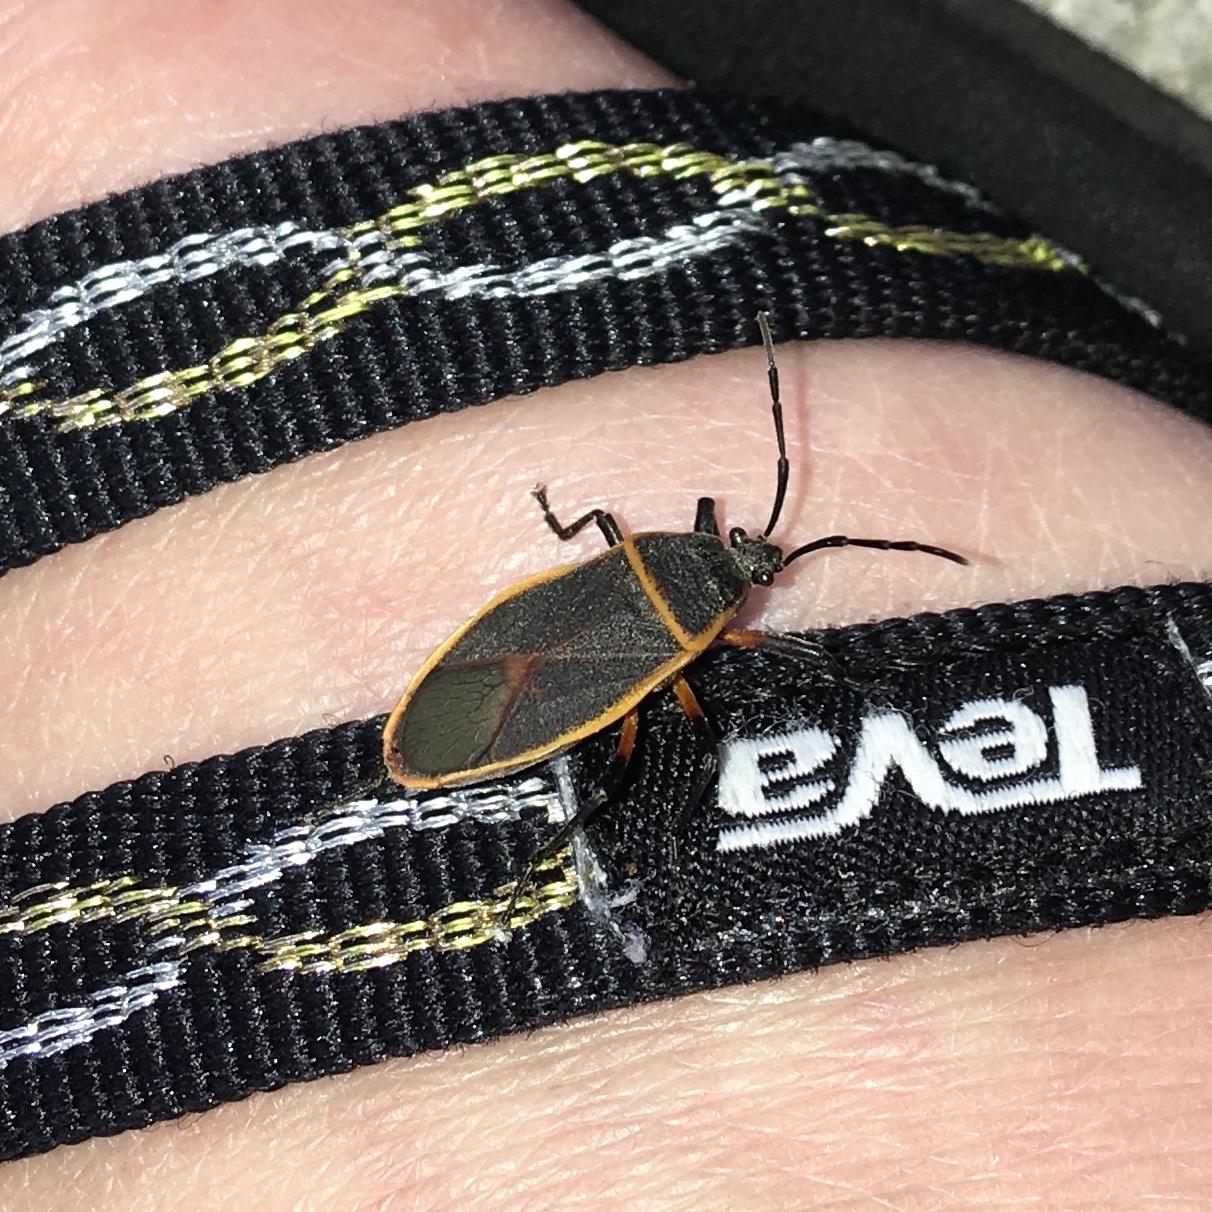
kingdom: Animalia
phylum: Arthropoda
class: Insecta
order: Hemiptera
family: Largidae
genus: Largus
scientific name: Largus succinctus
